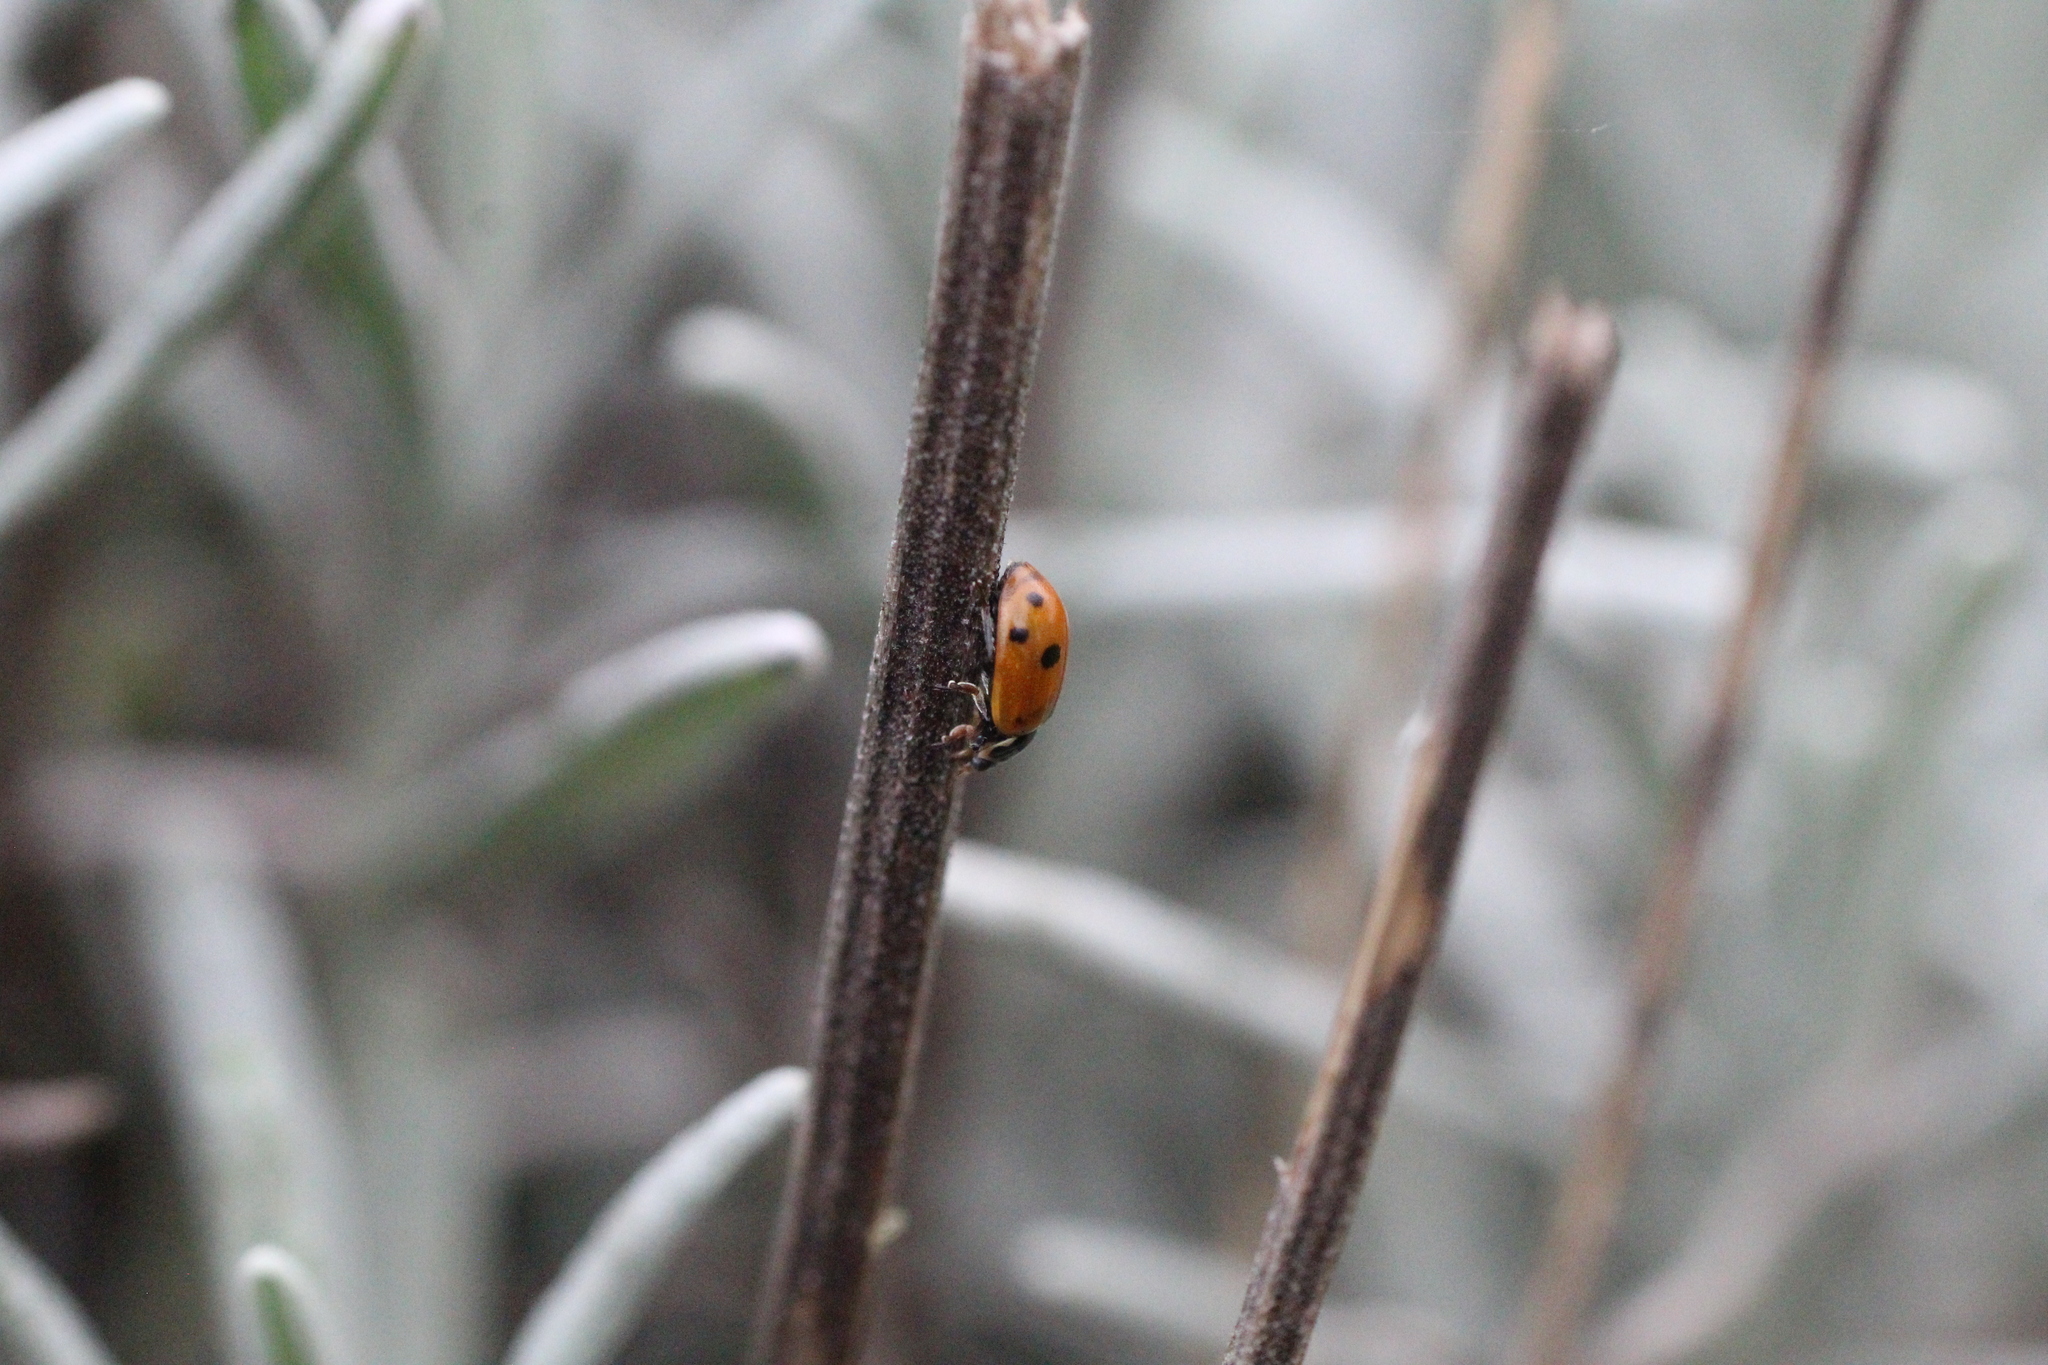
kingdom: Animalia
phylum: Arthropoda
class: Insecta
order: Coleoptera
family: Coccinellidae
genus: Hippodamia
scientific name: Hippodamia variegata
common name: Ladybird beetle
